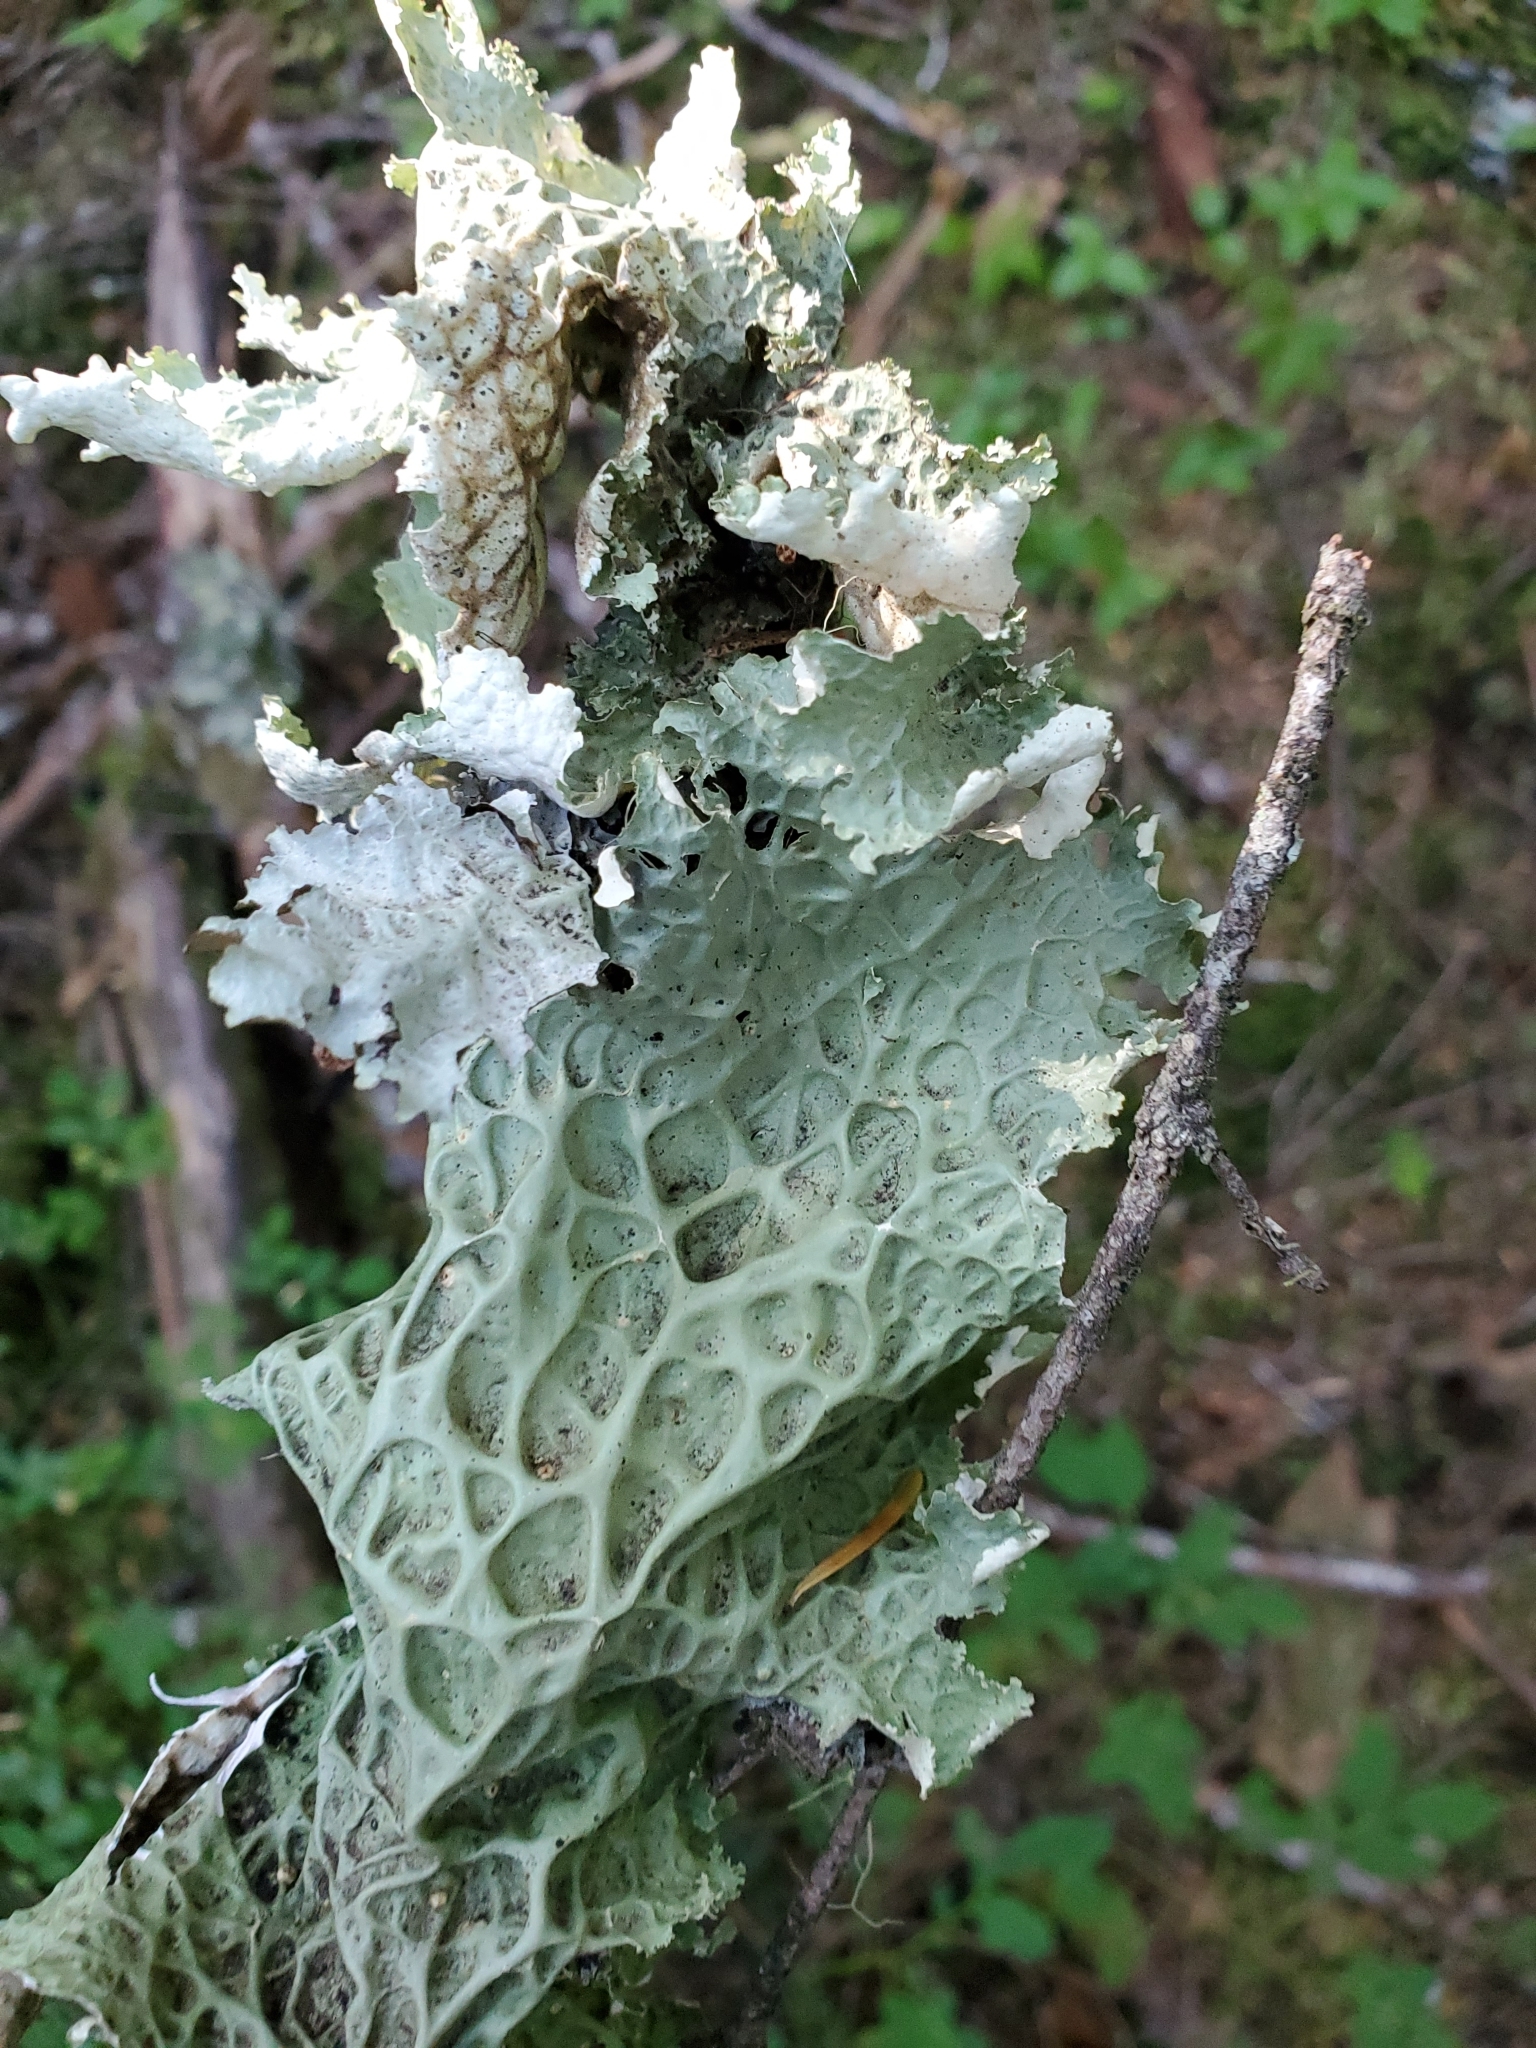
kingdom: Fungi
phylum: Ascomycota
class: Lecanoromycetes
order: Peltigerales
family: Lobariaceae
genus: Lobaria
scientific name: Lobaria oregana
